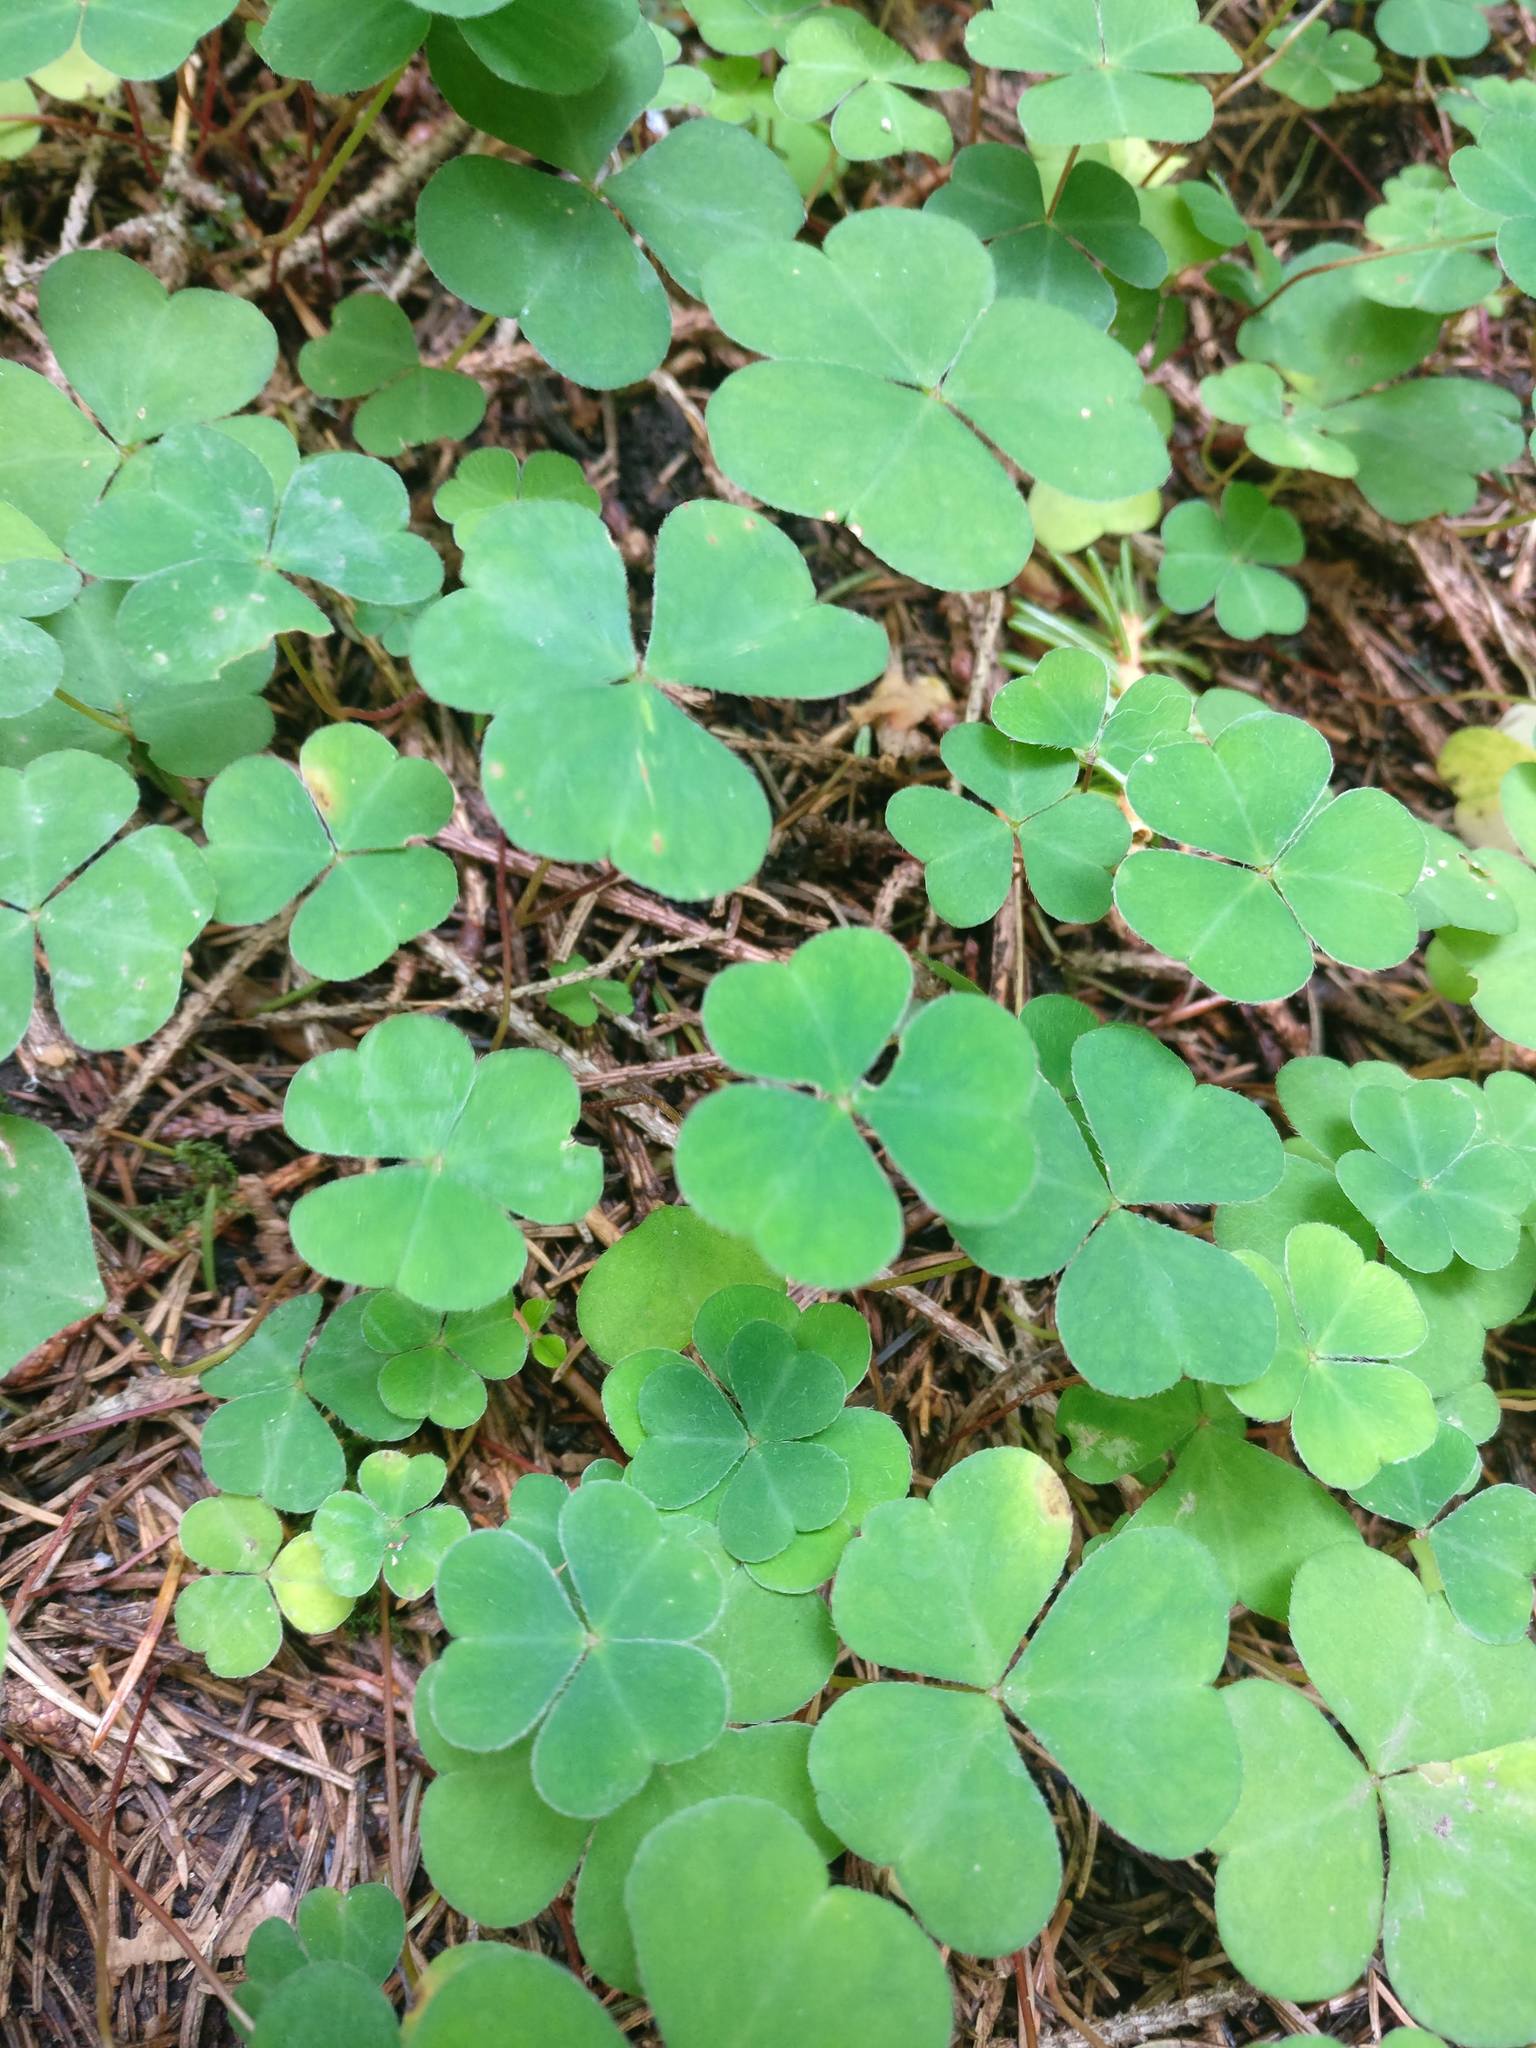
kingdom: Plantae
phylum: Tracheophyta
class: Magnoliopsida
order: Oxalidales
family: Oxalidaceae
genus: Oxalis
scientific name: Oxalis acetosella
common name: Wood-sorrel
